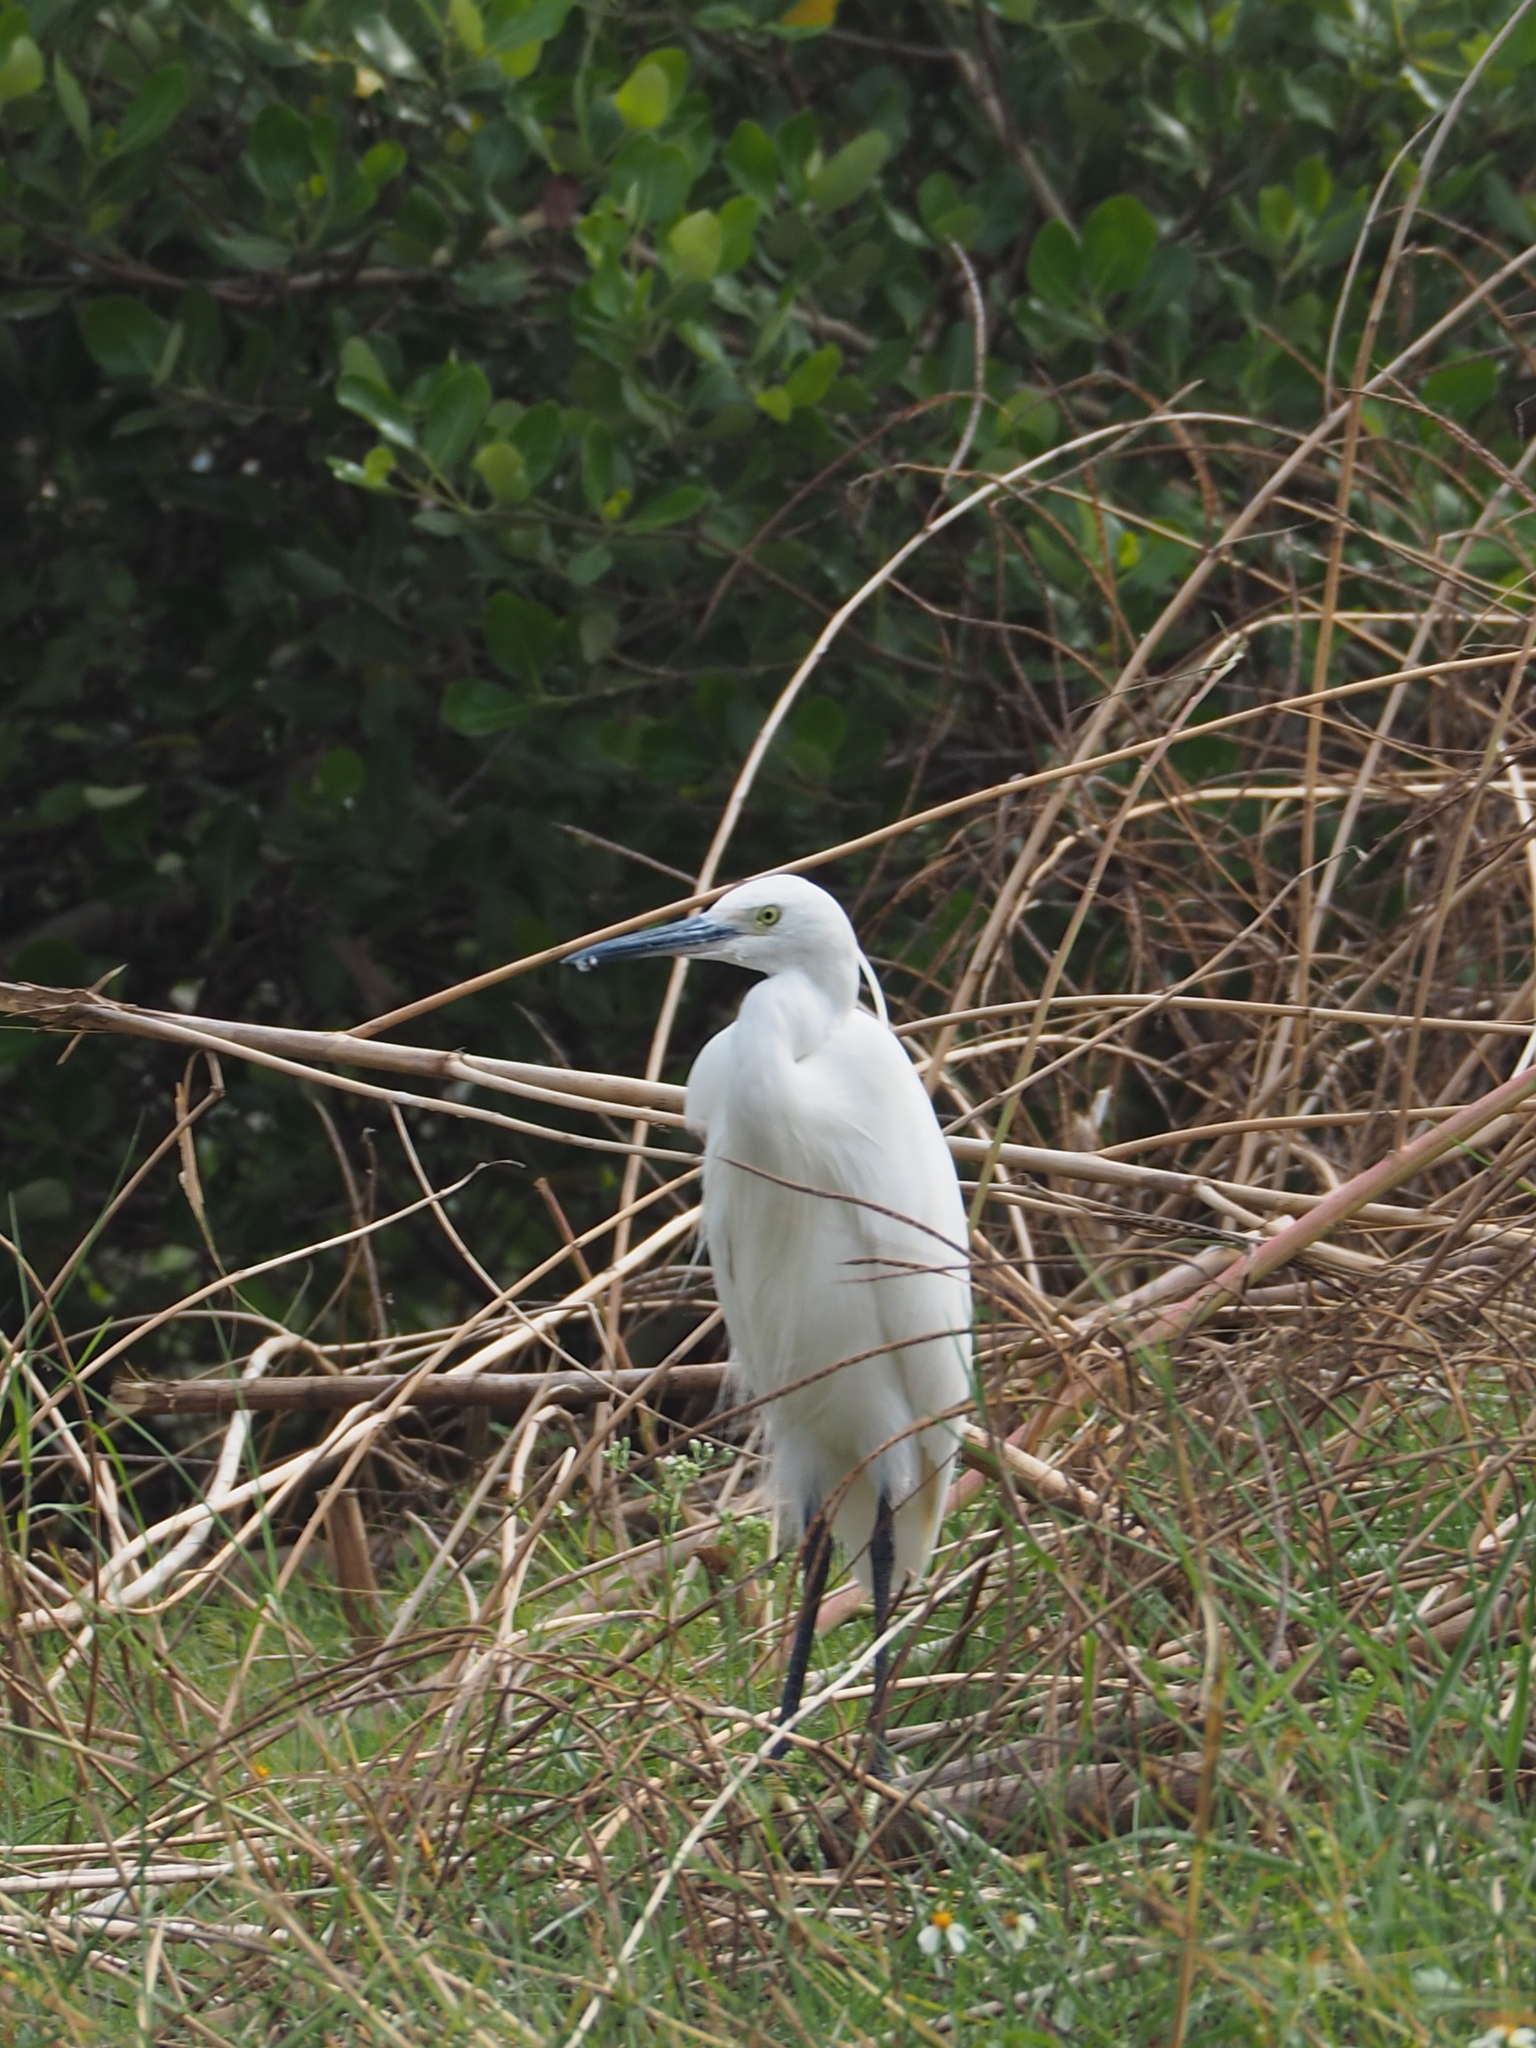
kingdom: Animalia
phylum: Chordata
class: Aves
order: Pelecaniformes
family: Ardeidae
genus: Egretta
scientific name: Egretta garzetta
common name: Little egret
